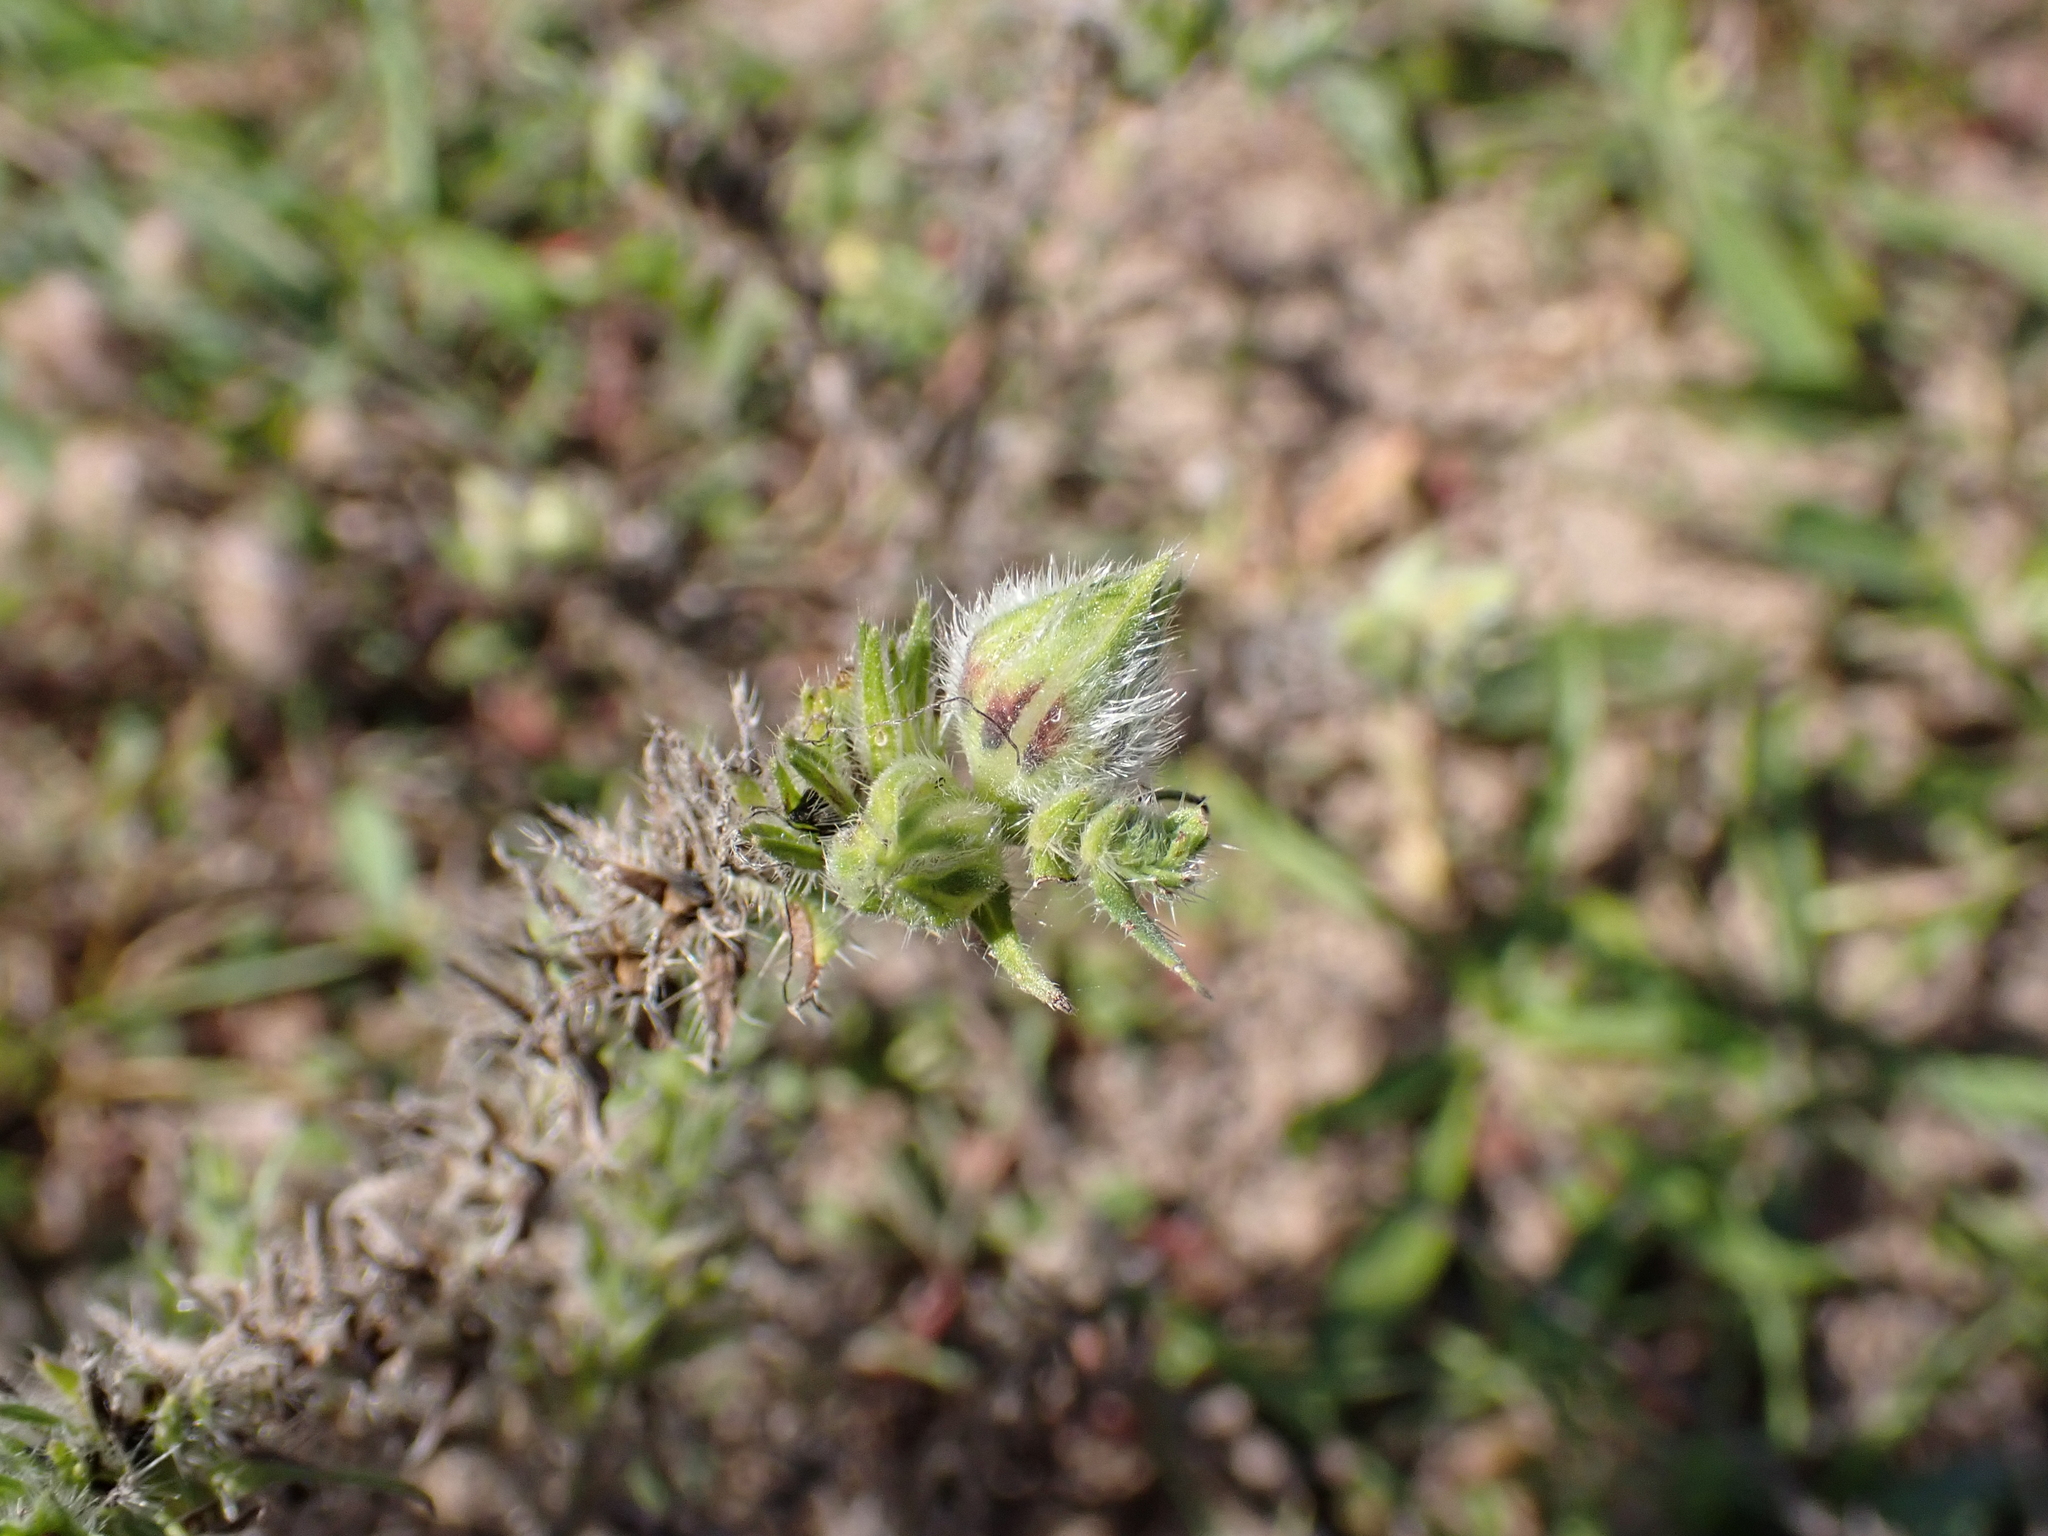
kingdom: Animalia
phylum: Arthropoda
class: Insecta
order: Diptera
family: Cecidomyiidae
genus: Asphondylia
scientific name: Asphondylia echii
